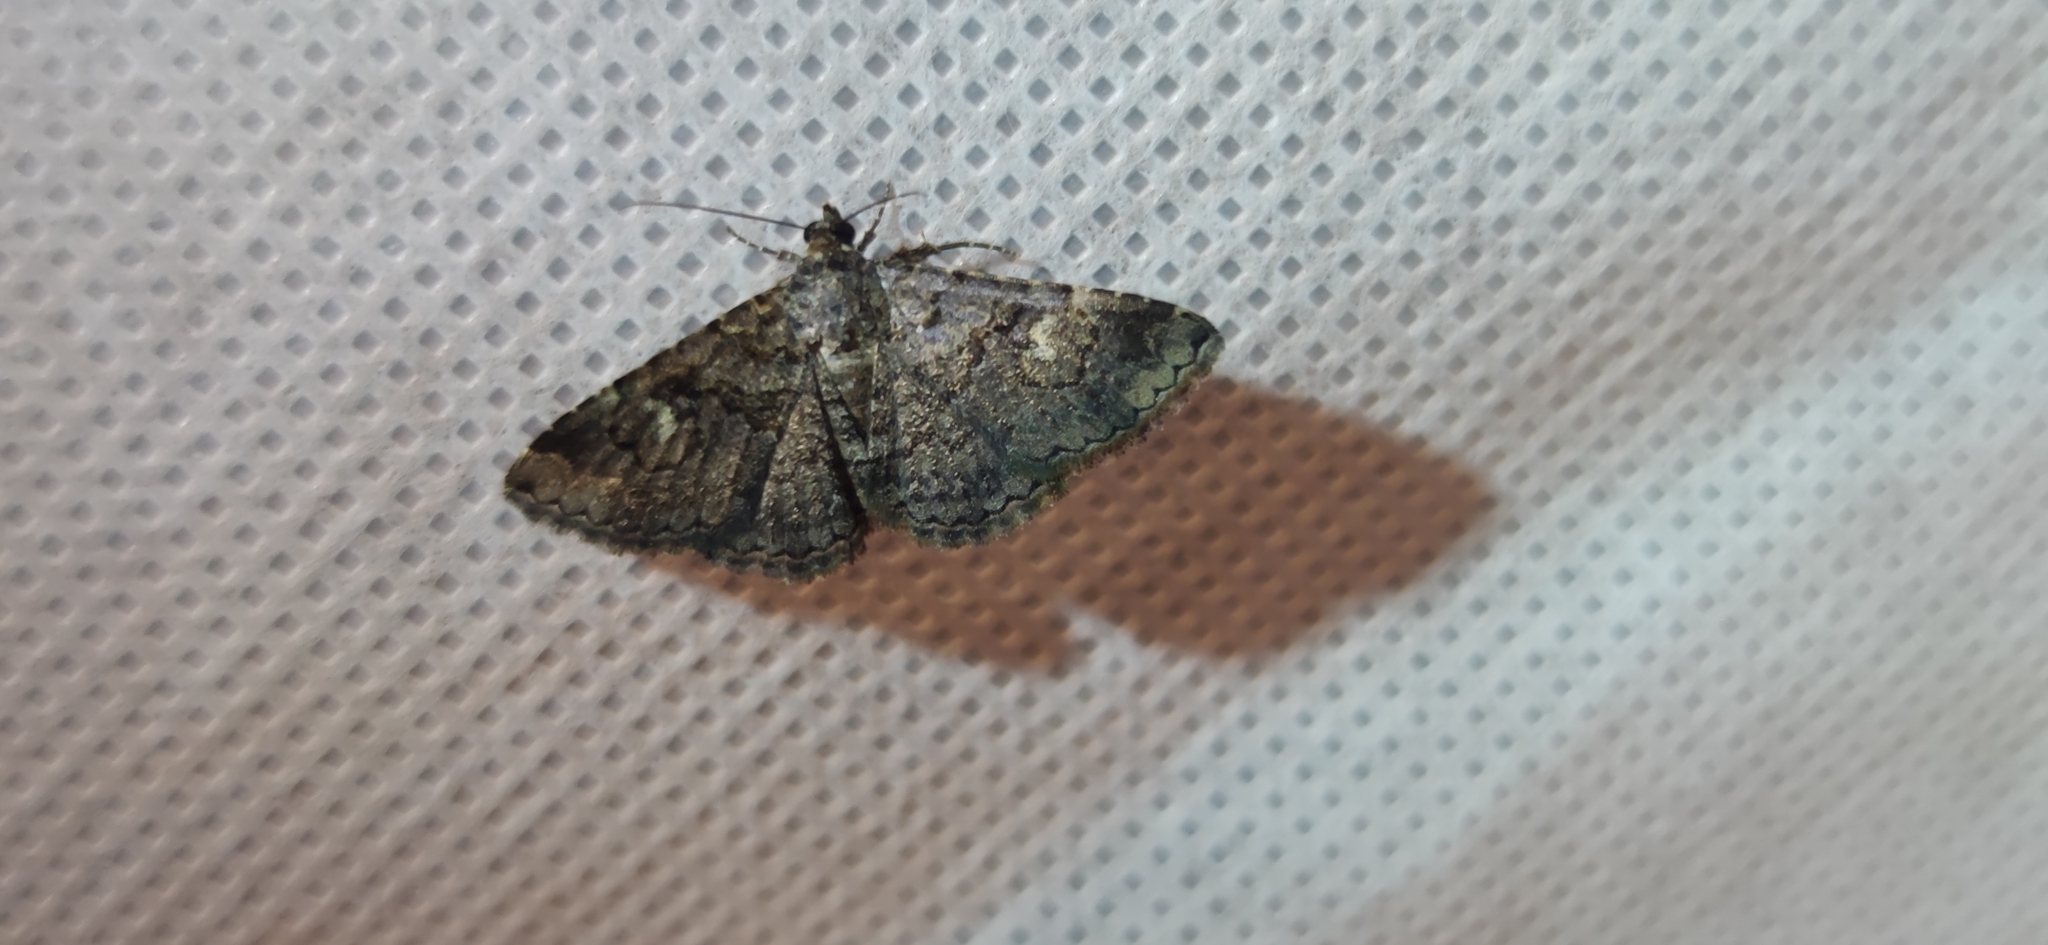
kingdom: Animalia
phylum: Arthropoda
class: Insecta
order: Lepidoptera
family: Erebidae
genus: Toxonprucha
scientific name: Toxonprucha excavata
